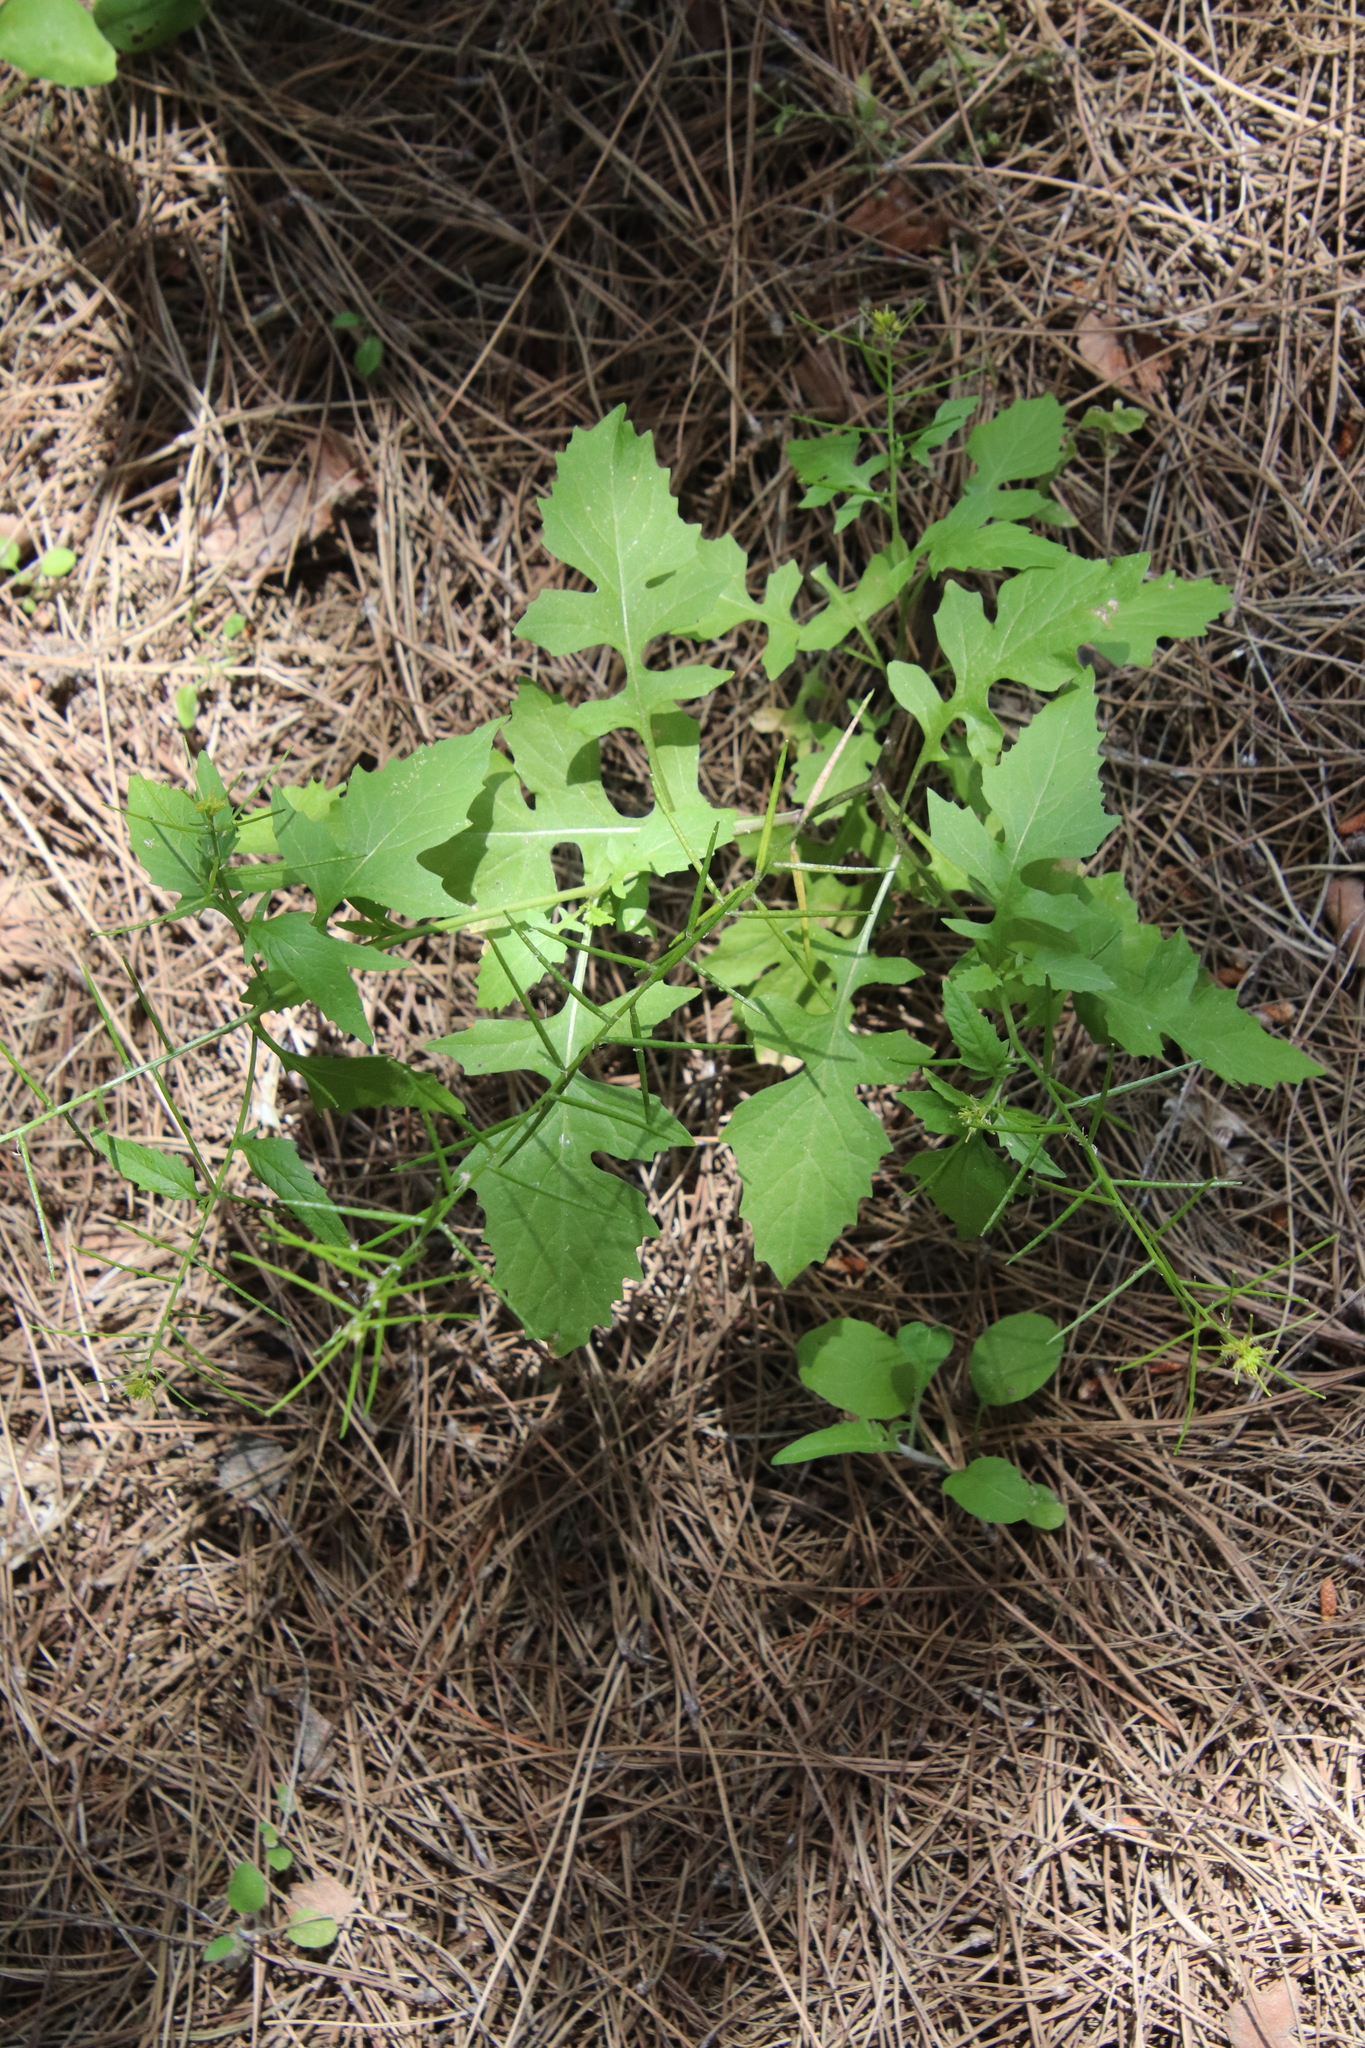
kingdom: Plantae
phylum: Tracheophyta
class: Magnoliopsida
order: Brassicales
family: Brassicaceae
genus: Sisymbrium
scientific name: Sisymbrium erysimoides
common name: French rocket
